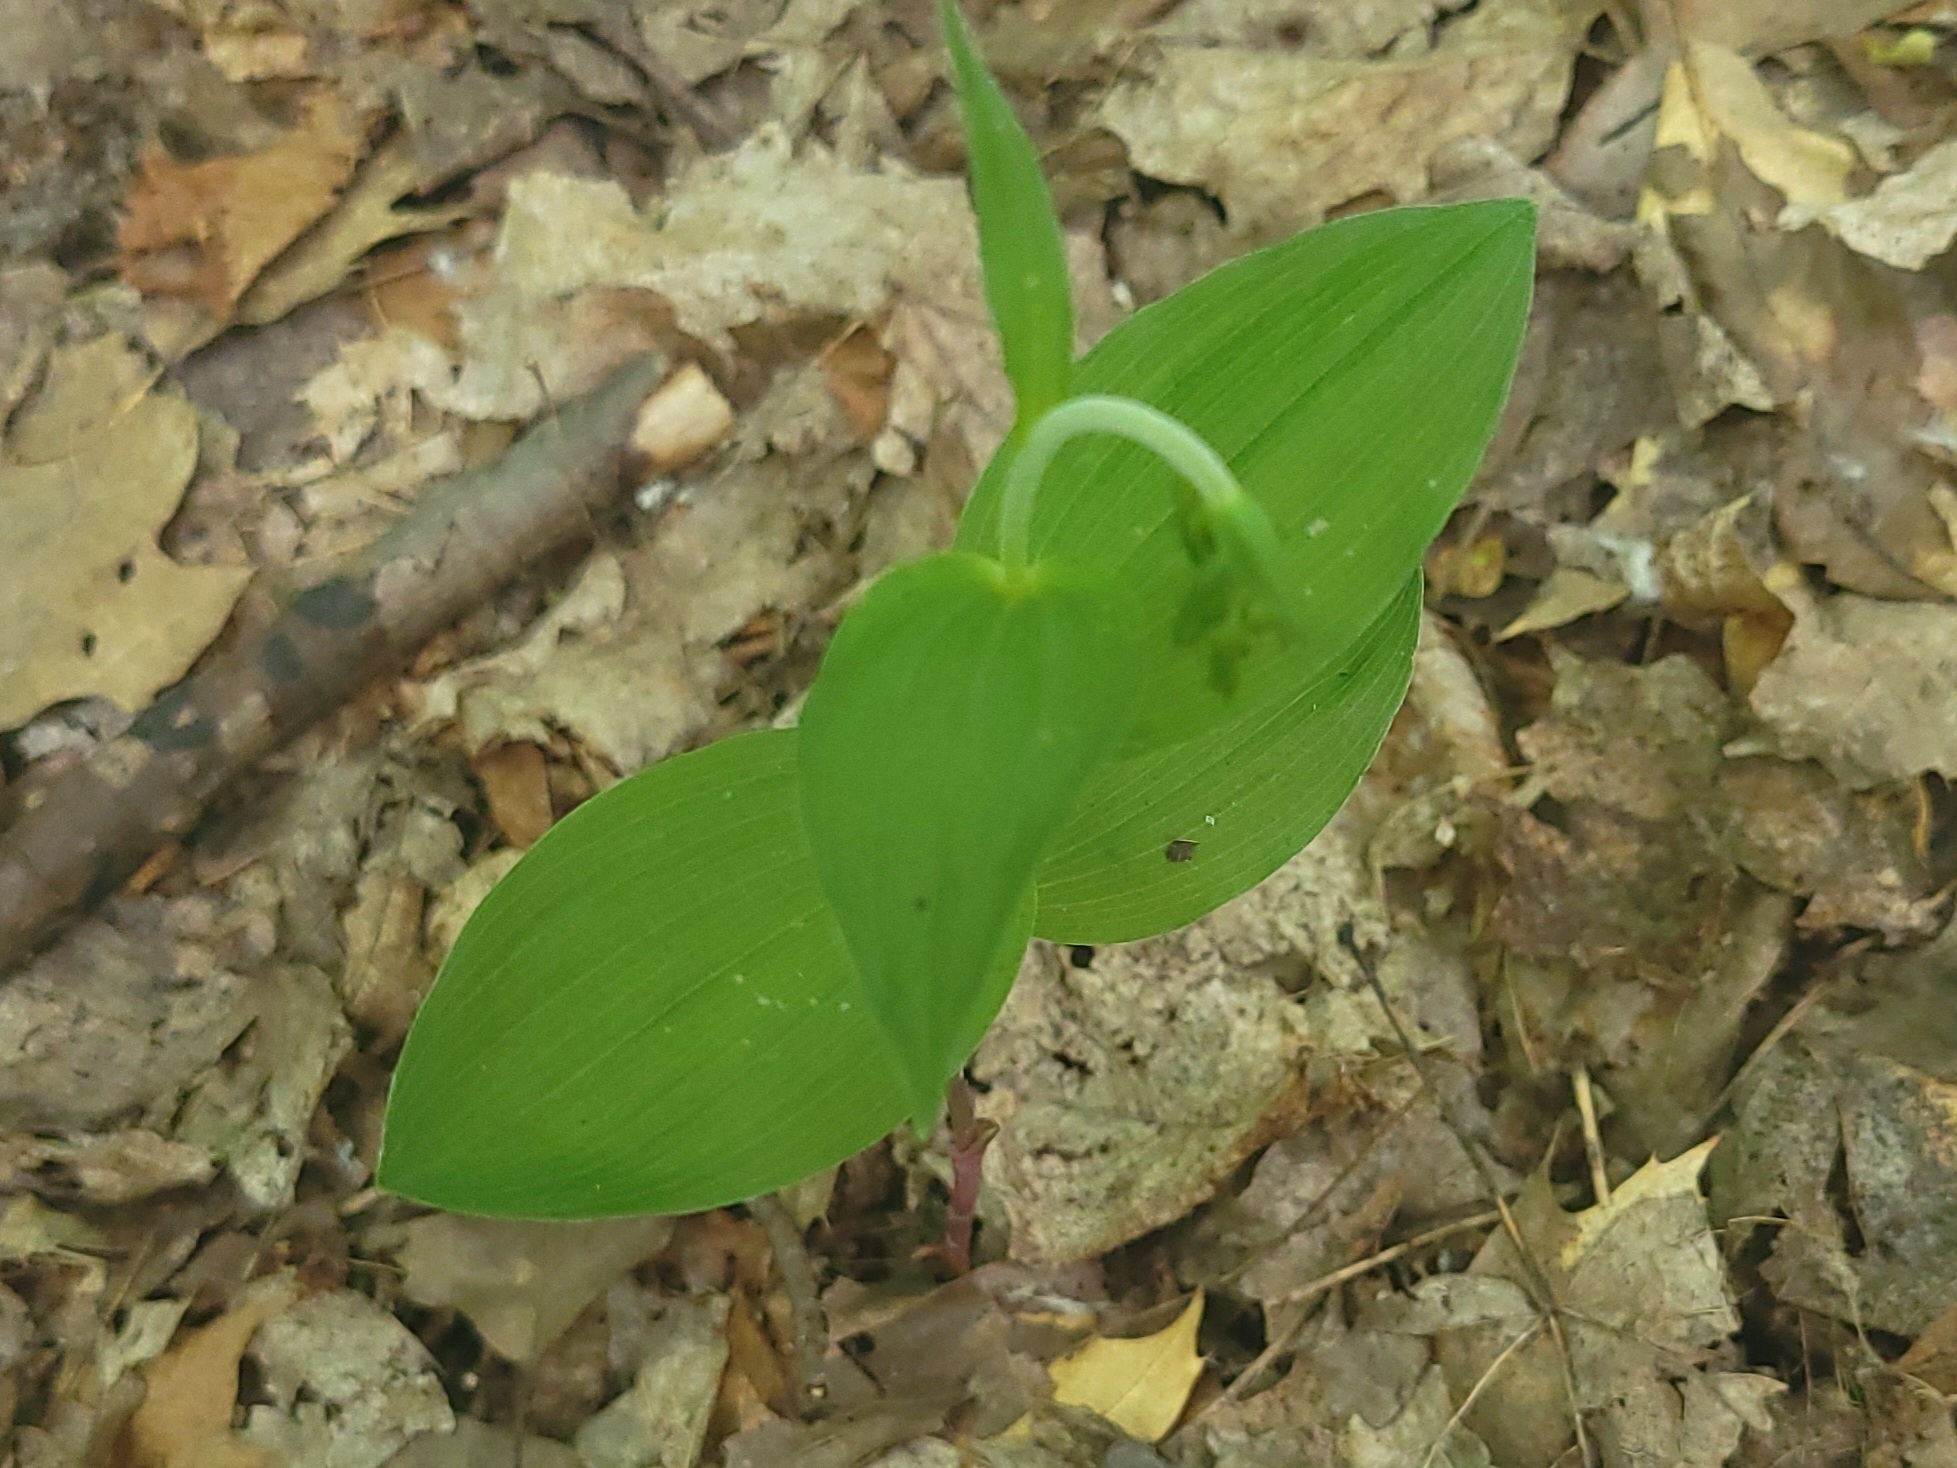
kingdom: Plantae
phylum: Tracheophyta
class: Liliopsida
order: Asparagales
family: Orchidaceae
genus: Epipactis
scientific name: Epipactis helleborine
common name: Broad-leaved helleborine
